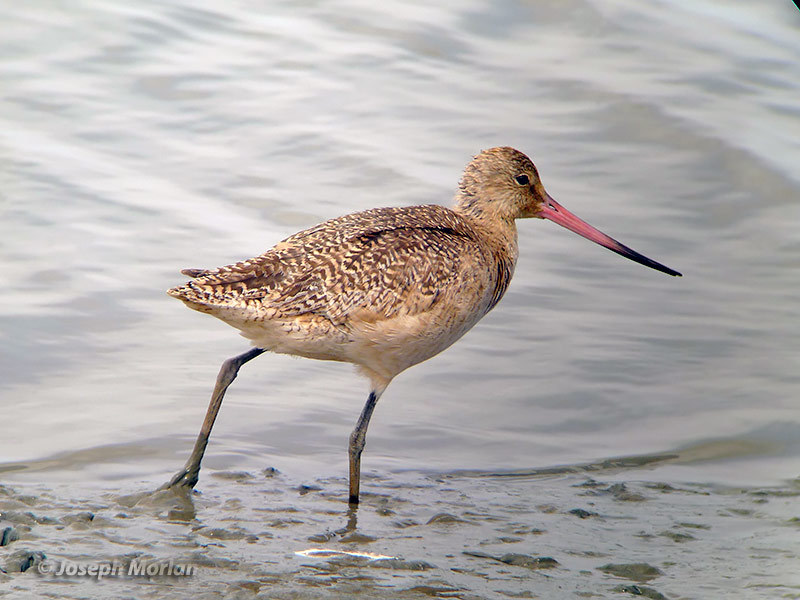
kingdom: Animalia
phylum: Chordata
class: Aves
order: Charadriiformes
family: Scolopacidae
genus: Limosa
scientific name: Limosa fedoa
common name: Marbled godwit
